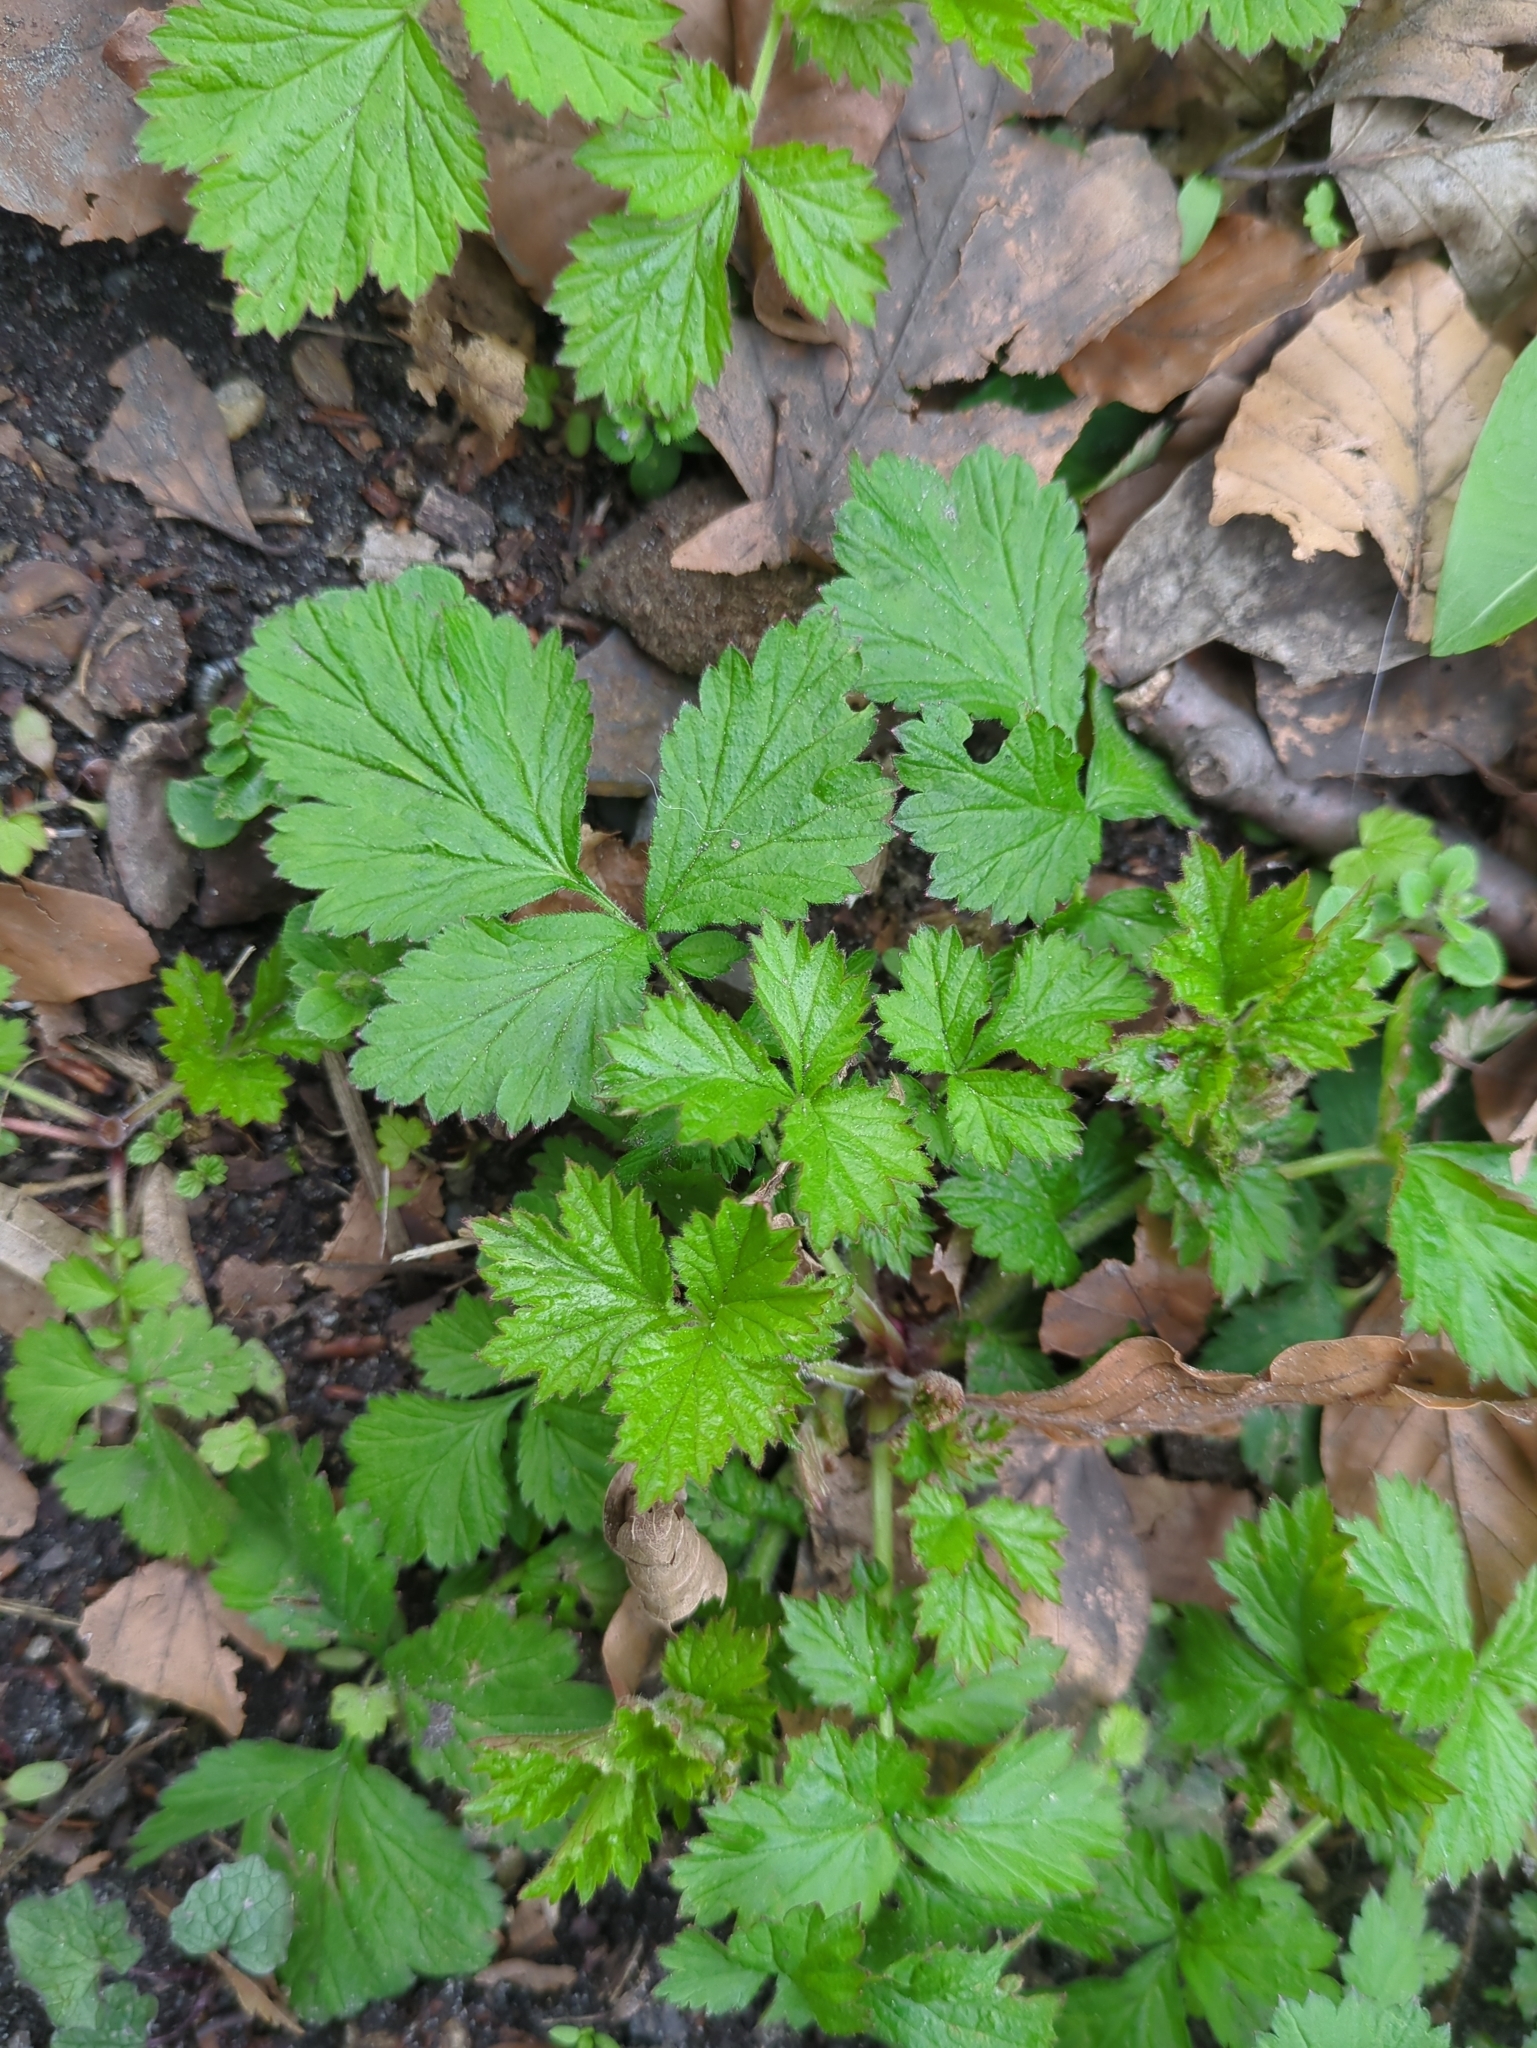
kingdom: Plantae
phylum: Tracheophyta
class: Magnoliopsida
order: Rosales
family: Rosaceae
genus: Geum
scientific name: Geum urbanum
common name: Wood avens
